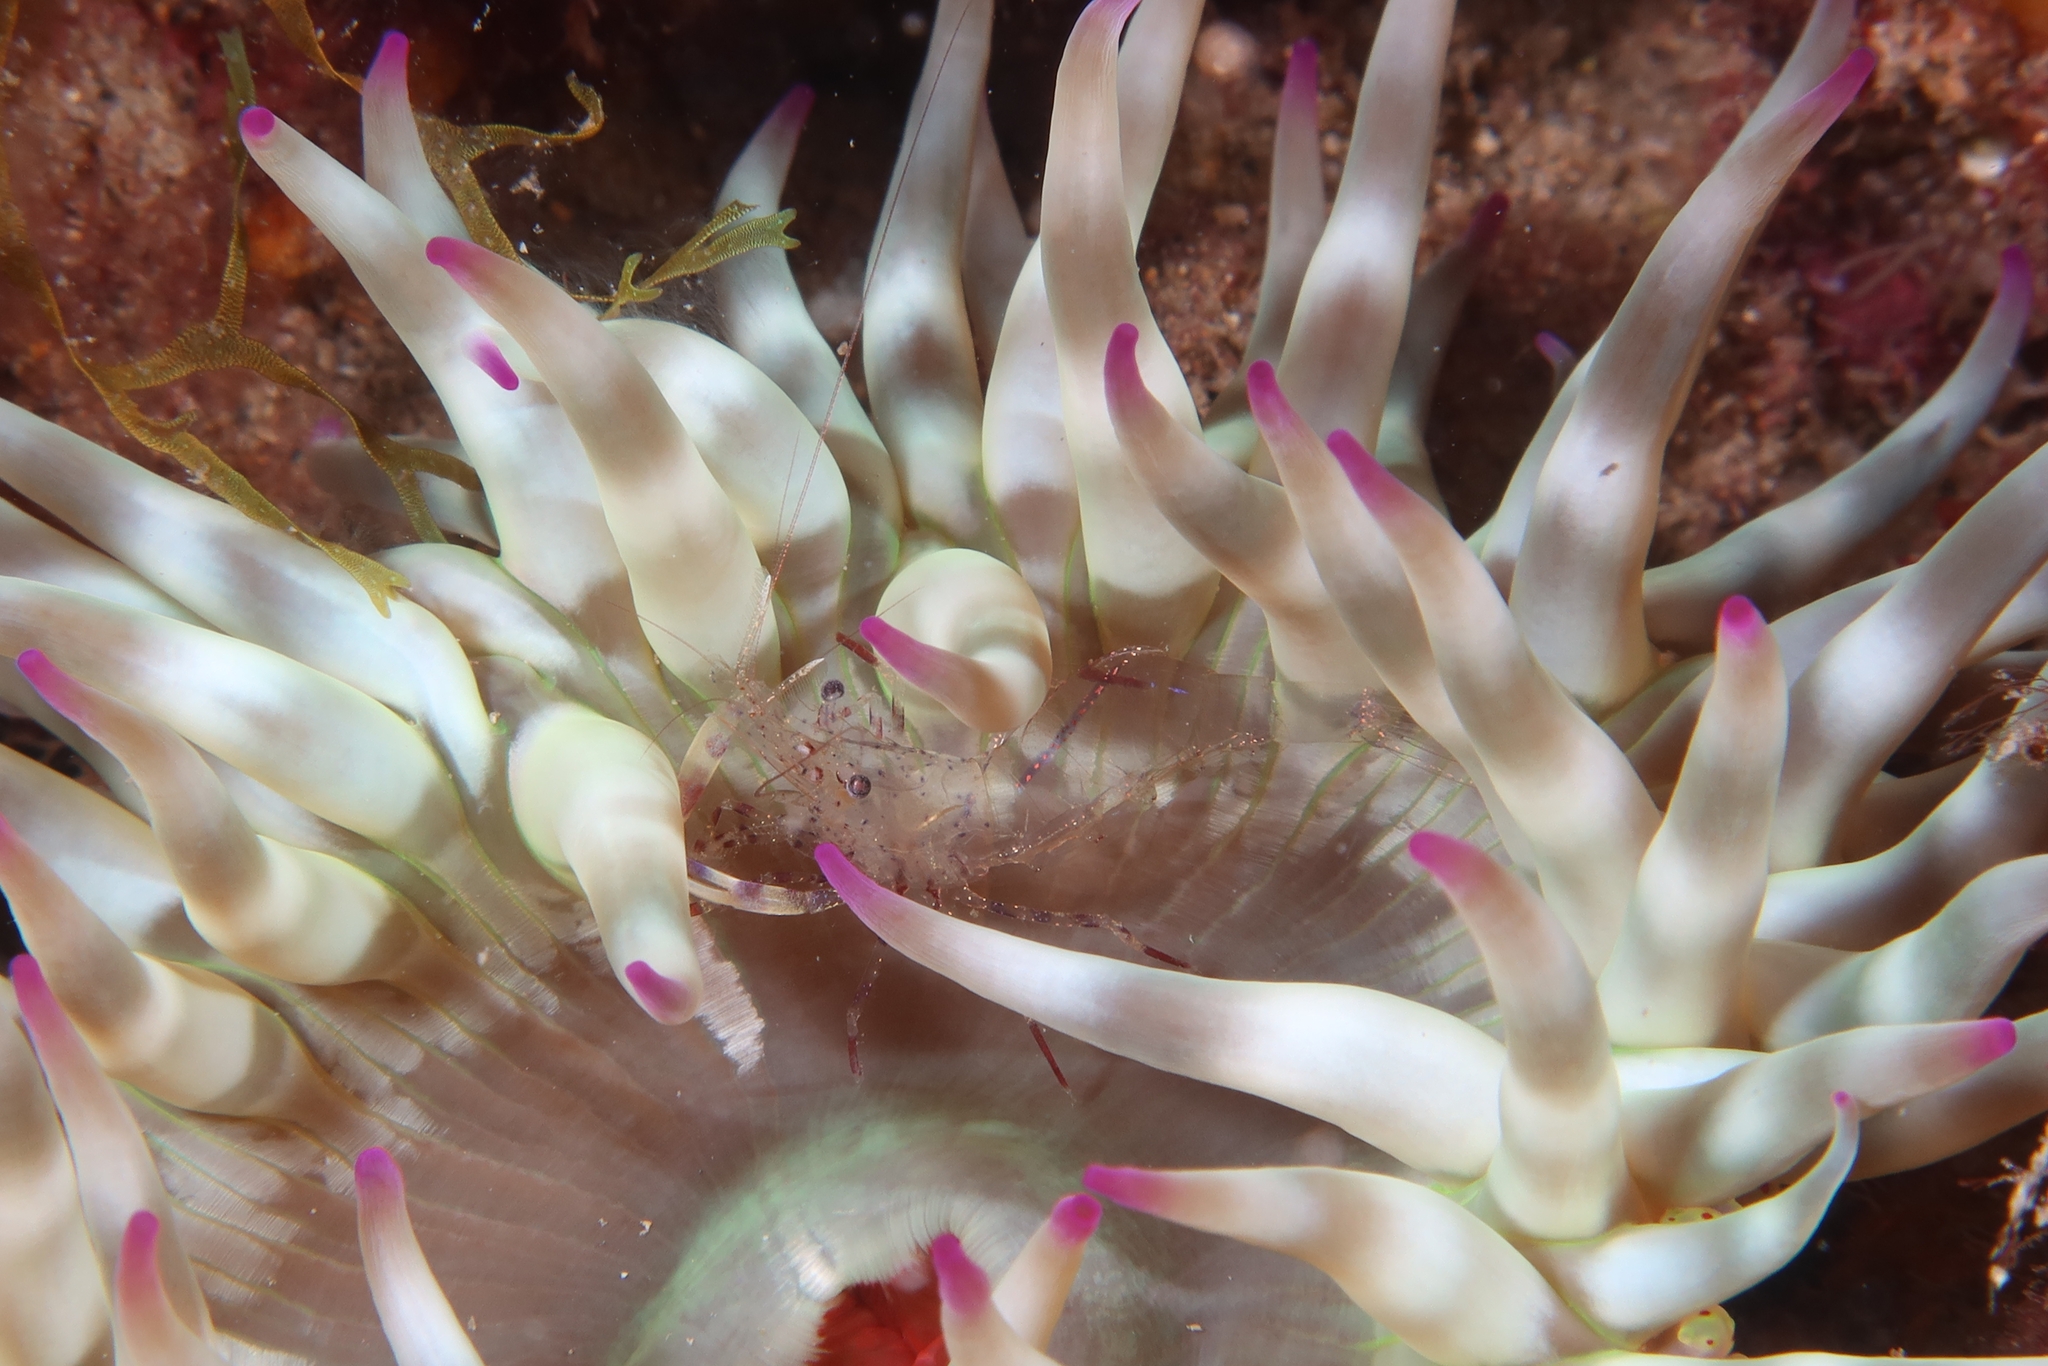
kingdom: Animalia
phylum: Arthropoda
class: Malacostraca
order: Decapoda
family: Palaemonidae
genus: Periclimenes
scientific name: Periclimenes aegylios
